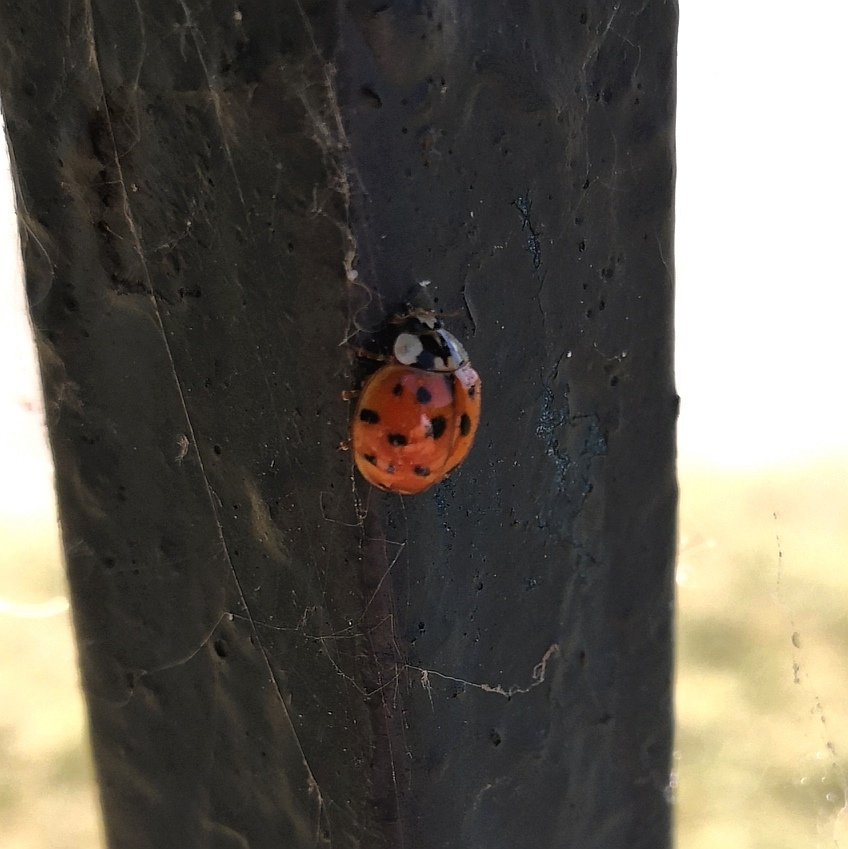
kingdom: Animalia
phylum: Arthropoda
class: Insecta
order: Coleoptera
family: Coccinellidae
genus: Harmonia
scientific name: Harmonia axyridis
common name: Harlequin ladybird
